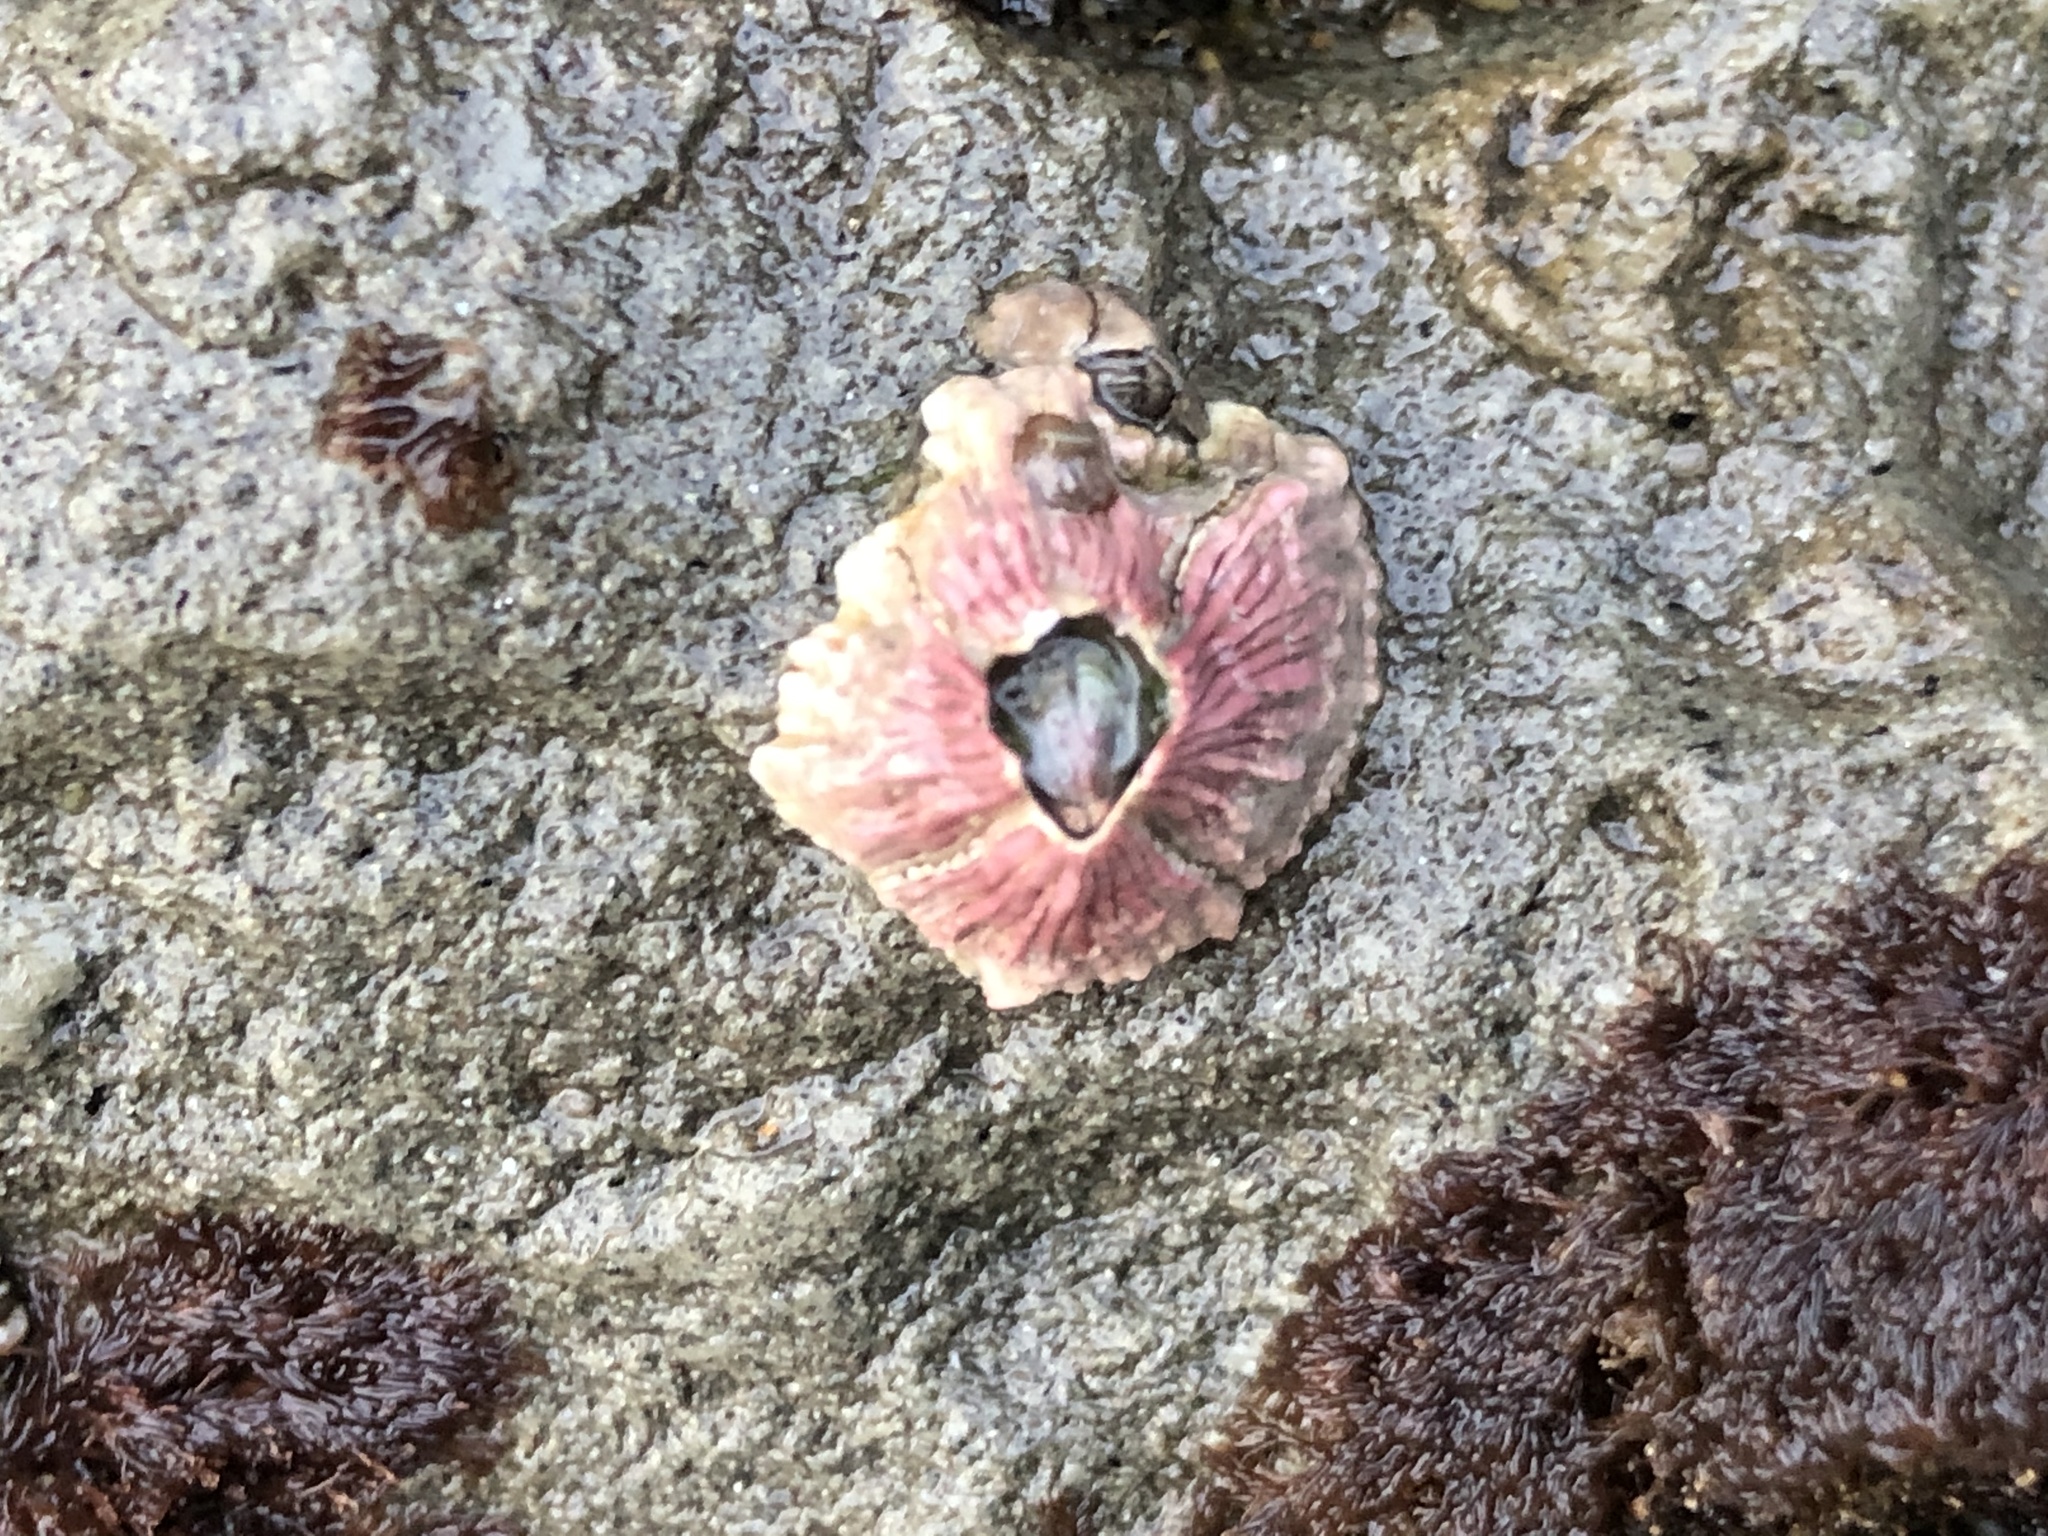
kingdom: Animalia
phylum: Arthropoda
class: Maxillopoda
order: Sessilia
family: Tetraclitidae
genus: Tetraclita
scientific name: Tetraclita rubescens
